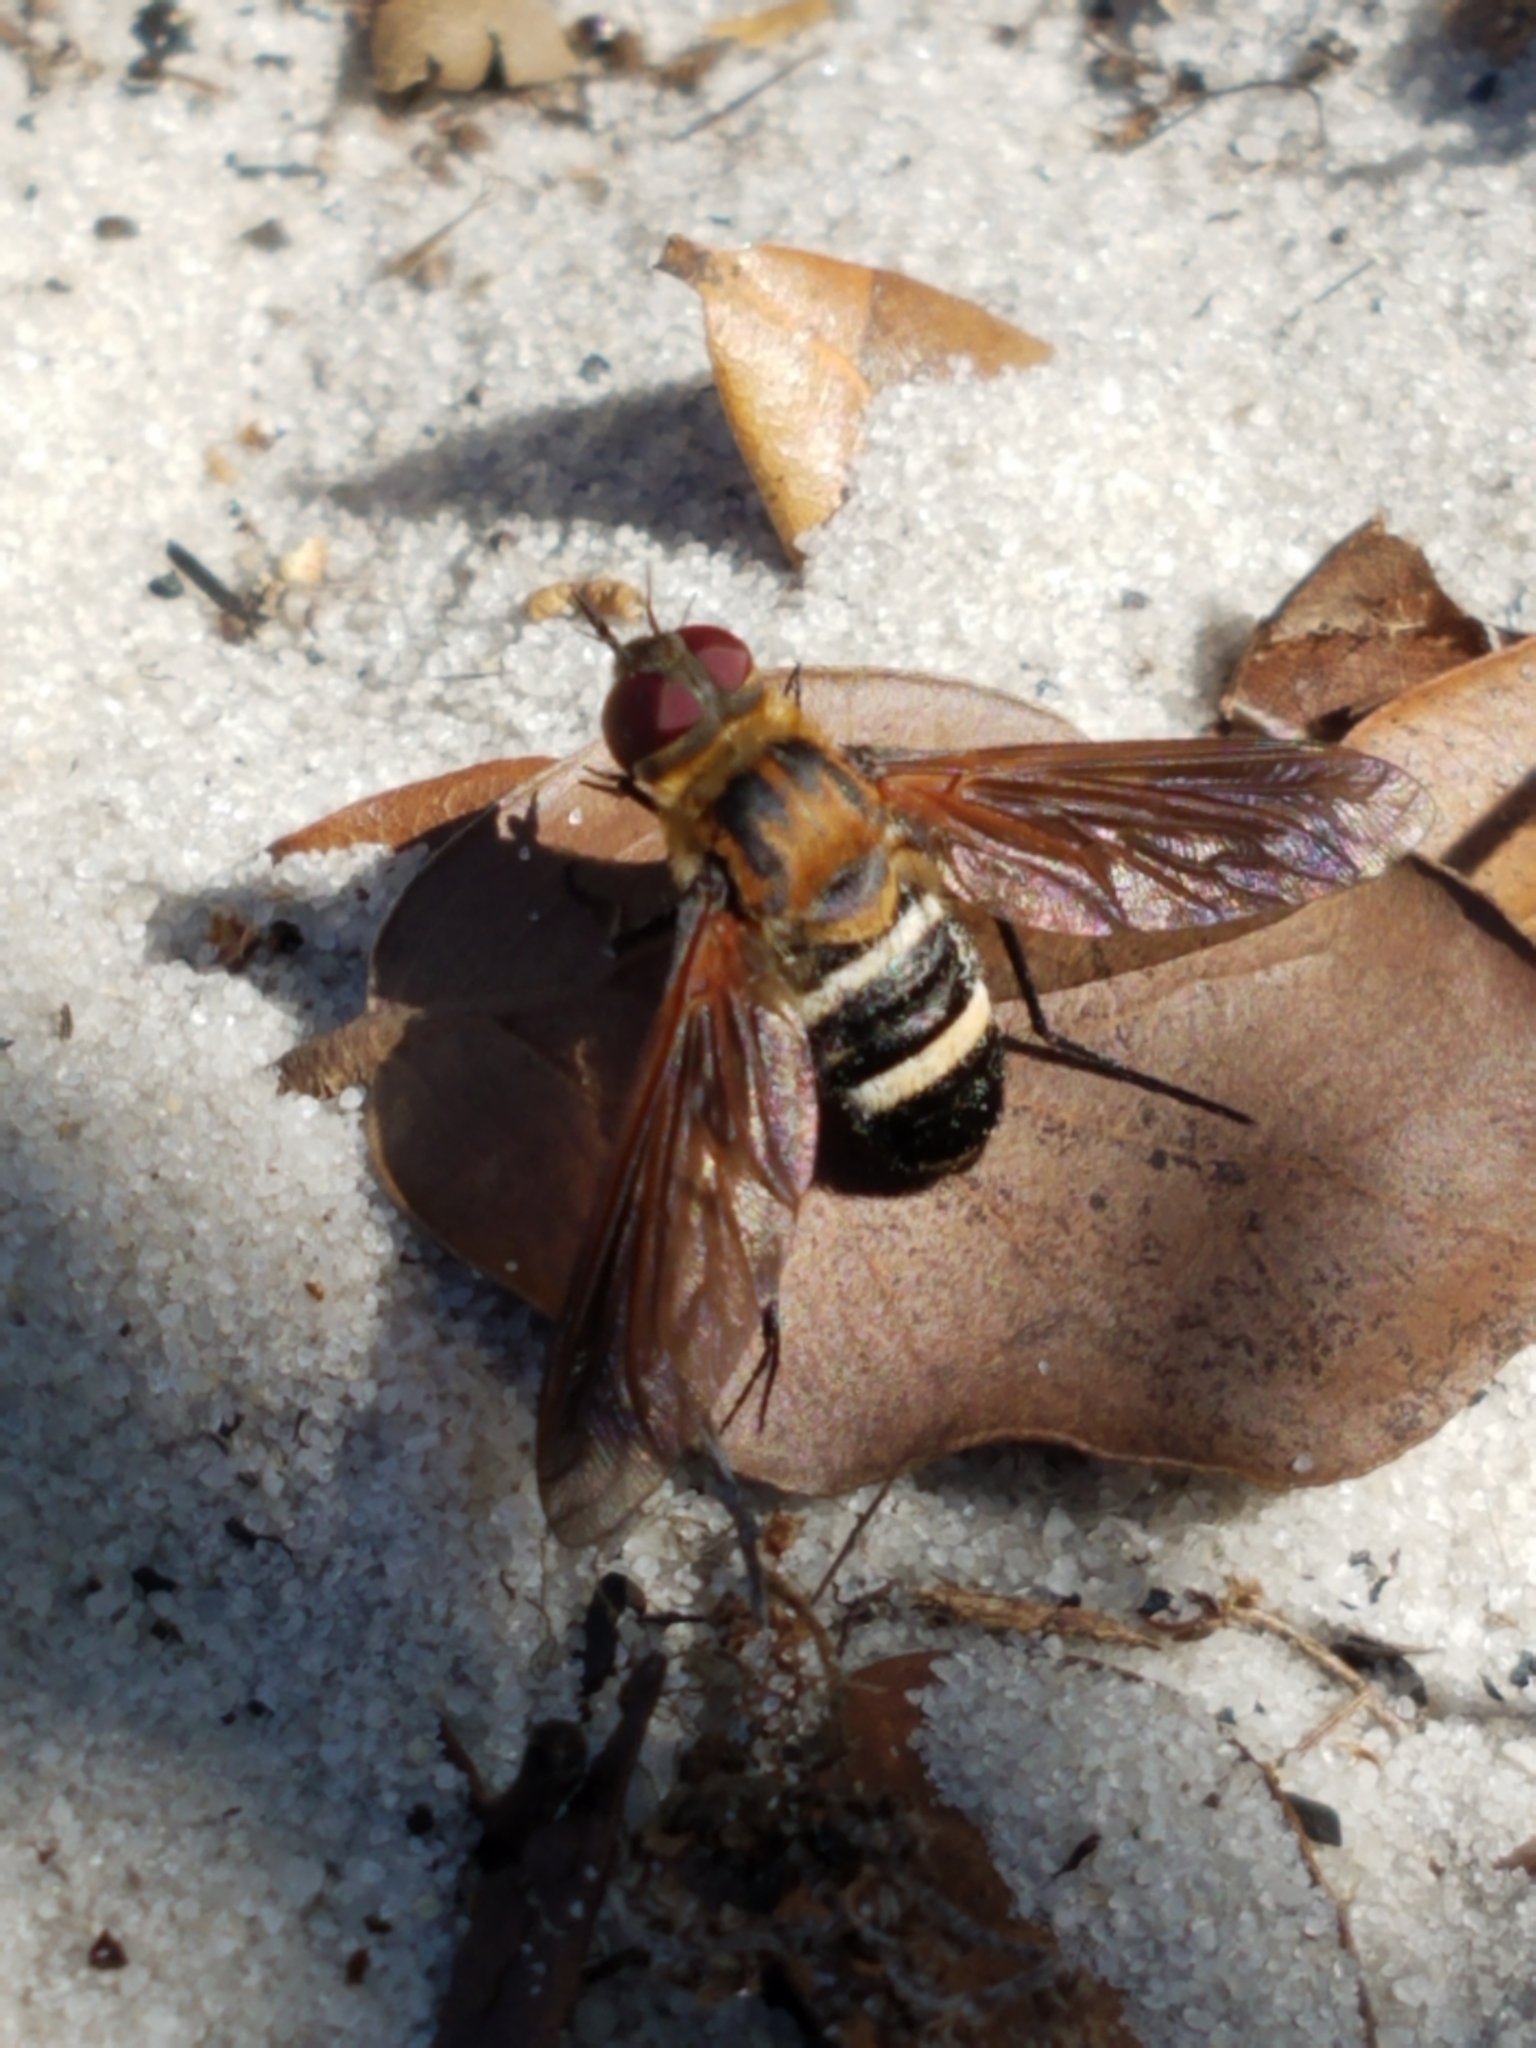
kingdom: Animalia
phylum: Arthropoda
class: Insecta
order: Diptera
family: Bombyliidae
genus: Exoprosopa
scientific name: Exoprosopa fasciata
